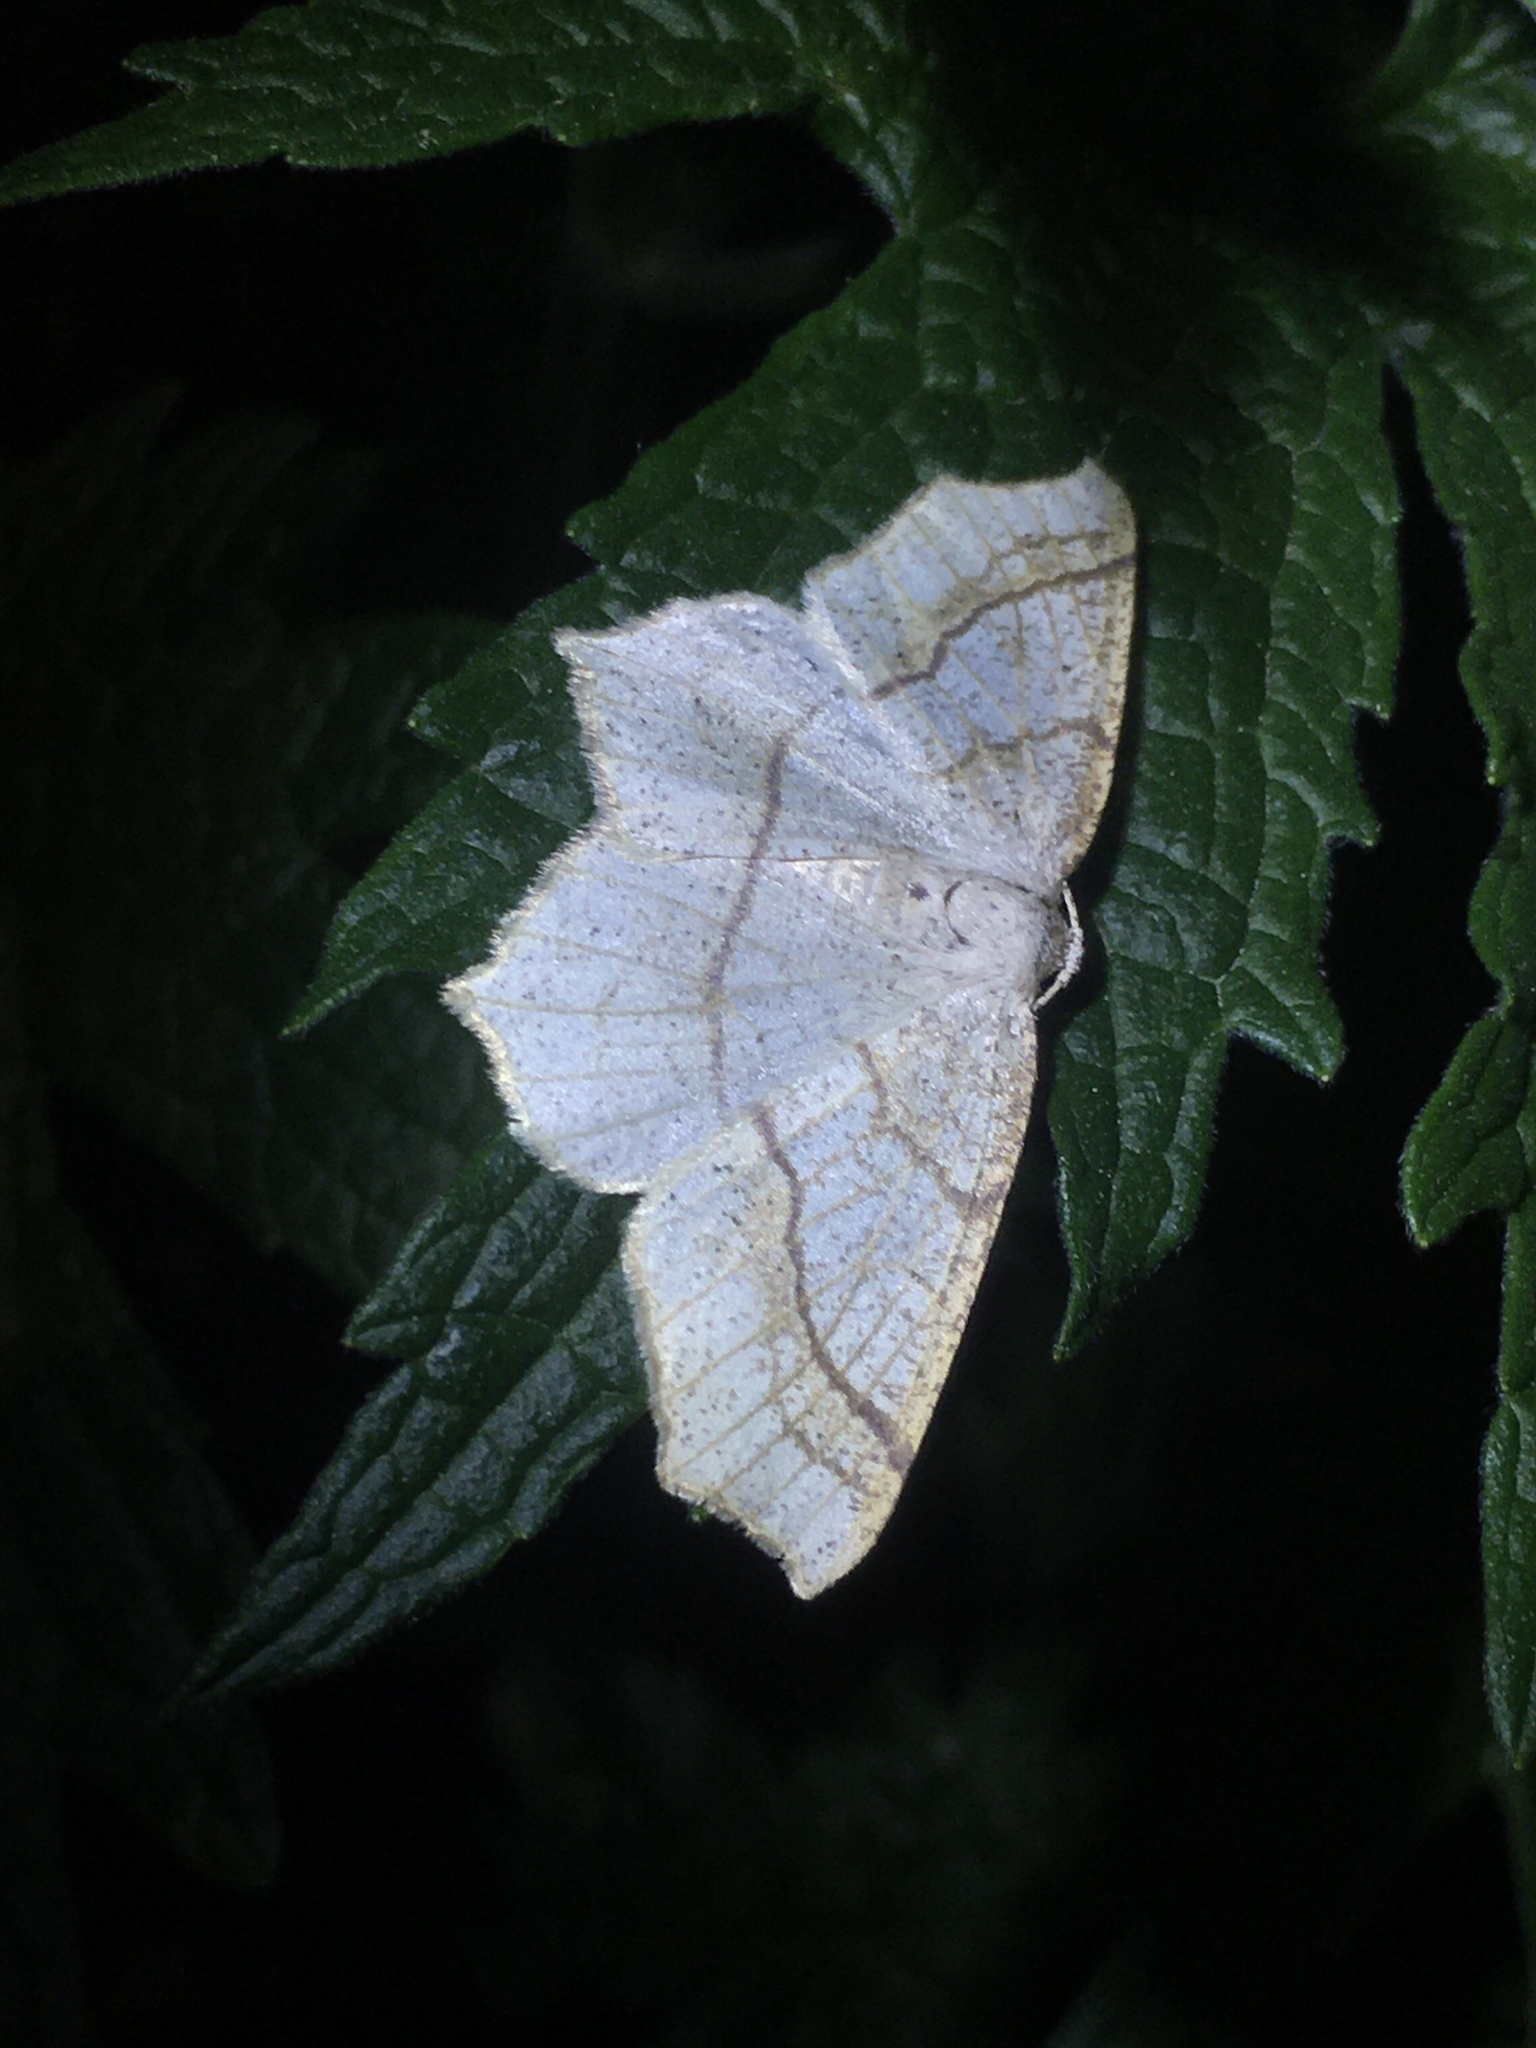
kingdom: Animalia
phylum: Arthropoda
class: Insecta
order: Lepidoptera
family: Geometridae
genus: Besma
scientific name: Besma quercivoraria
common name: Oak besma
